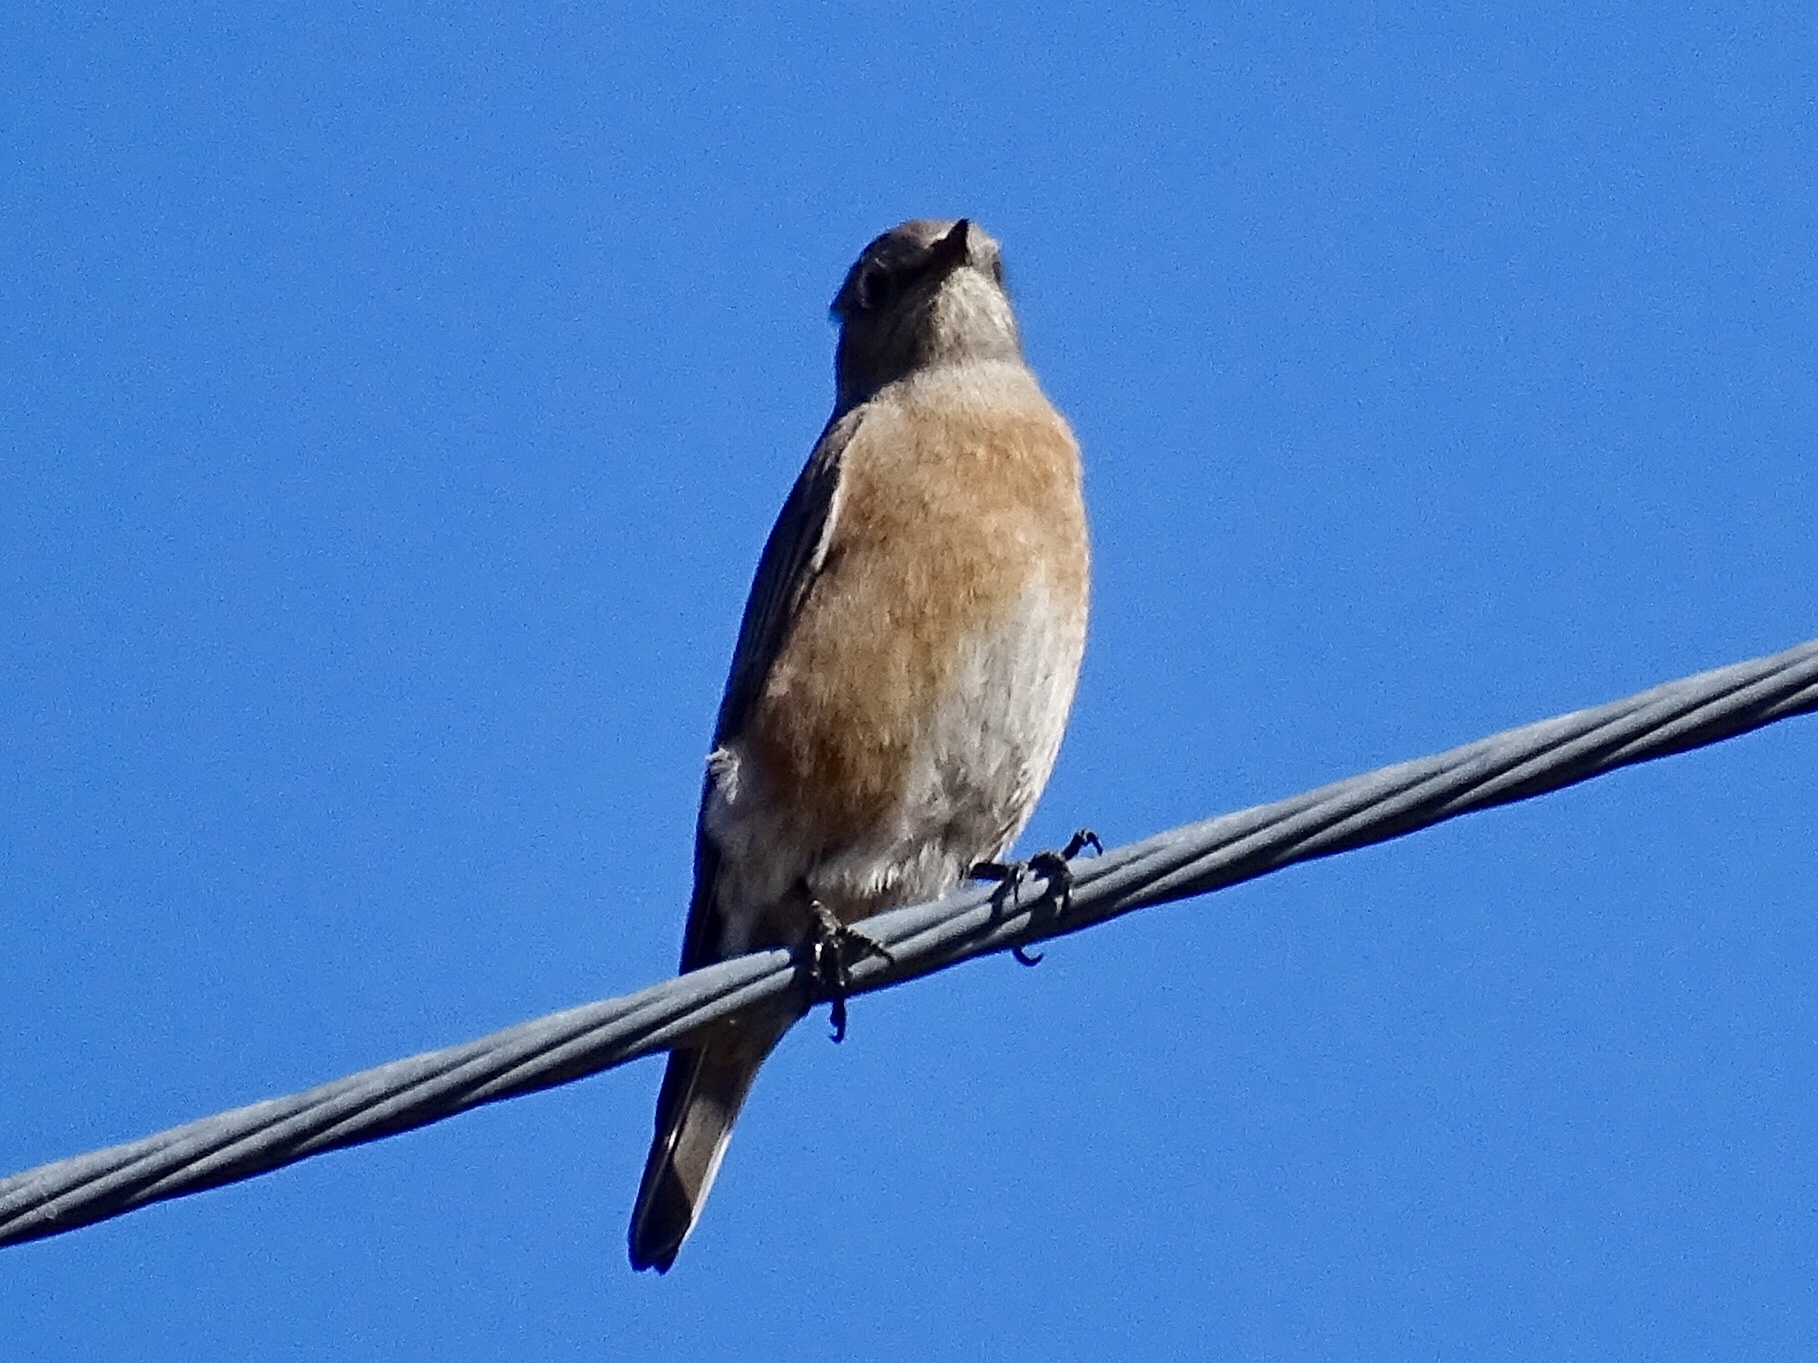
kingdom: Animalia
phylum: Chordata
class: Aves
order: Passeriformes
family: Turdidae
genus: Sialia
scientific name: Sialia mexicana
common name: Western bluebird
